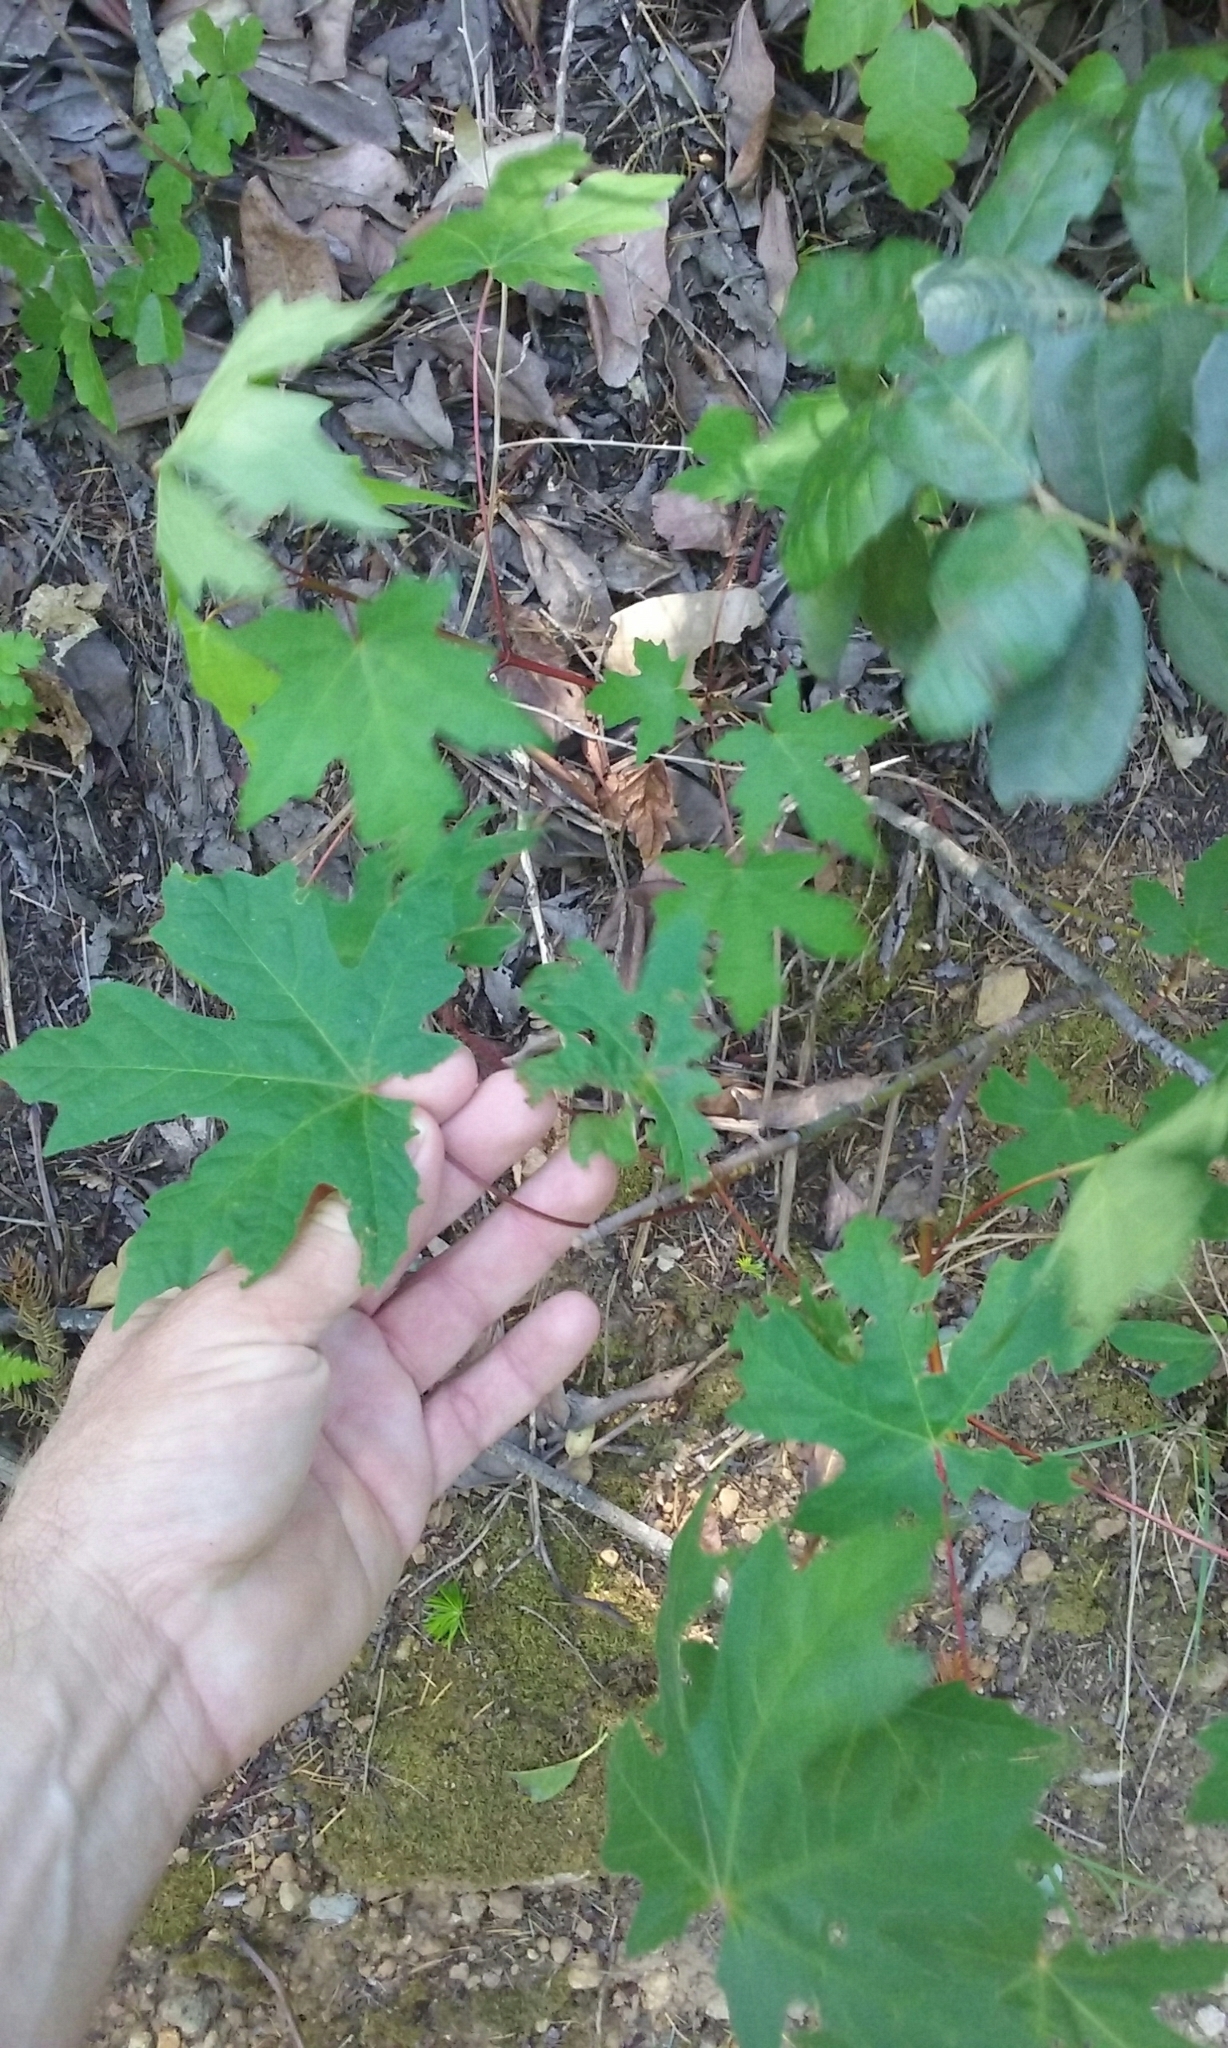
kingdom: Plantae
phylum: Tracheophyta
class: Magnoliopsida
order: Sapindales
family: Sapindaceae
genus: Acer
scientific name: Acer macrophyllum
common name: Oregon maple
